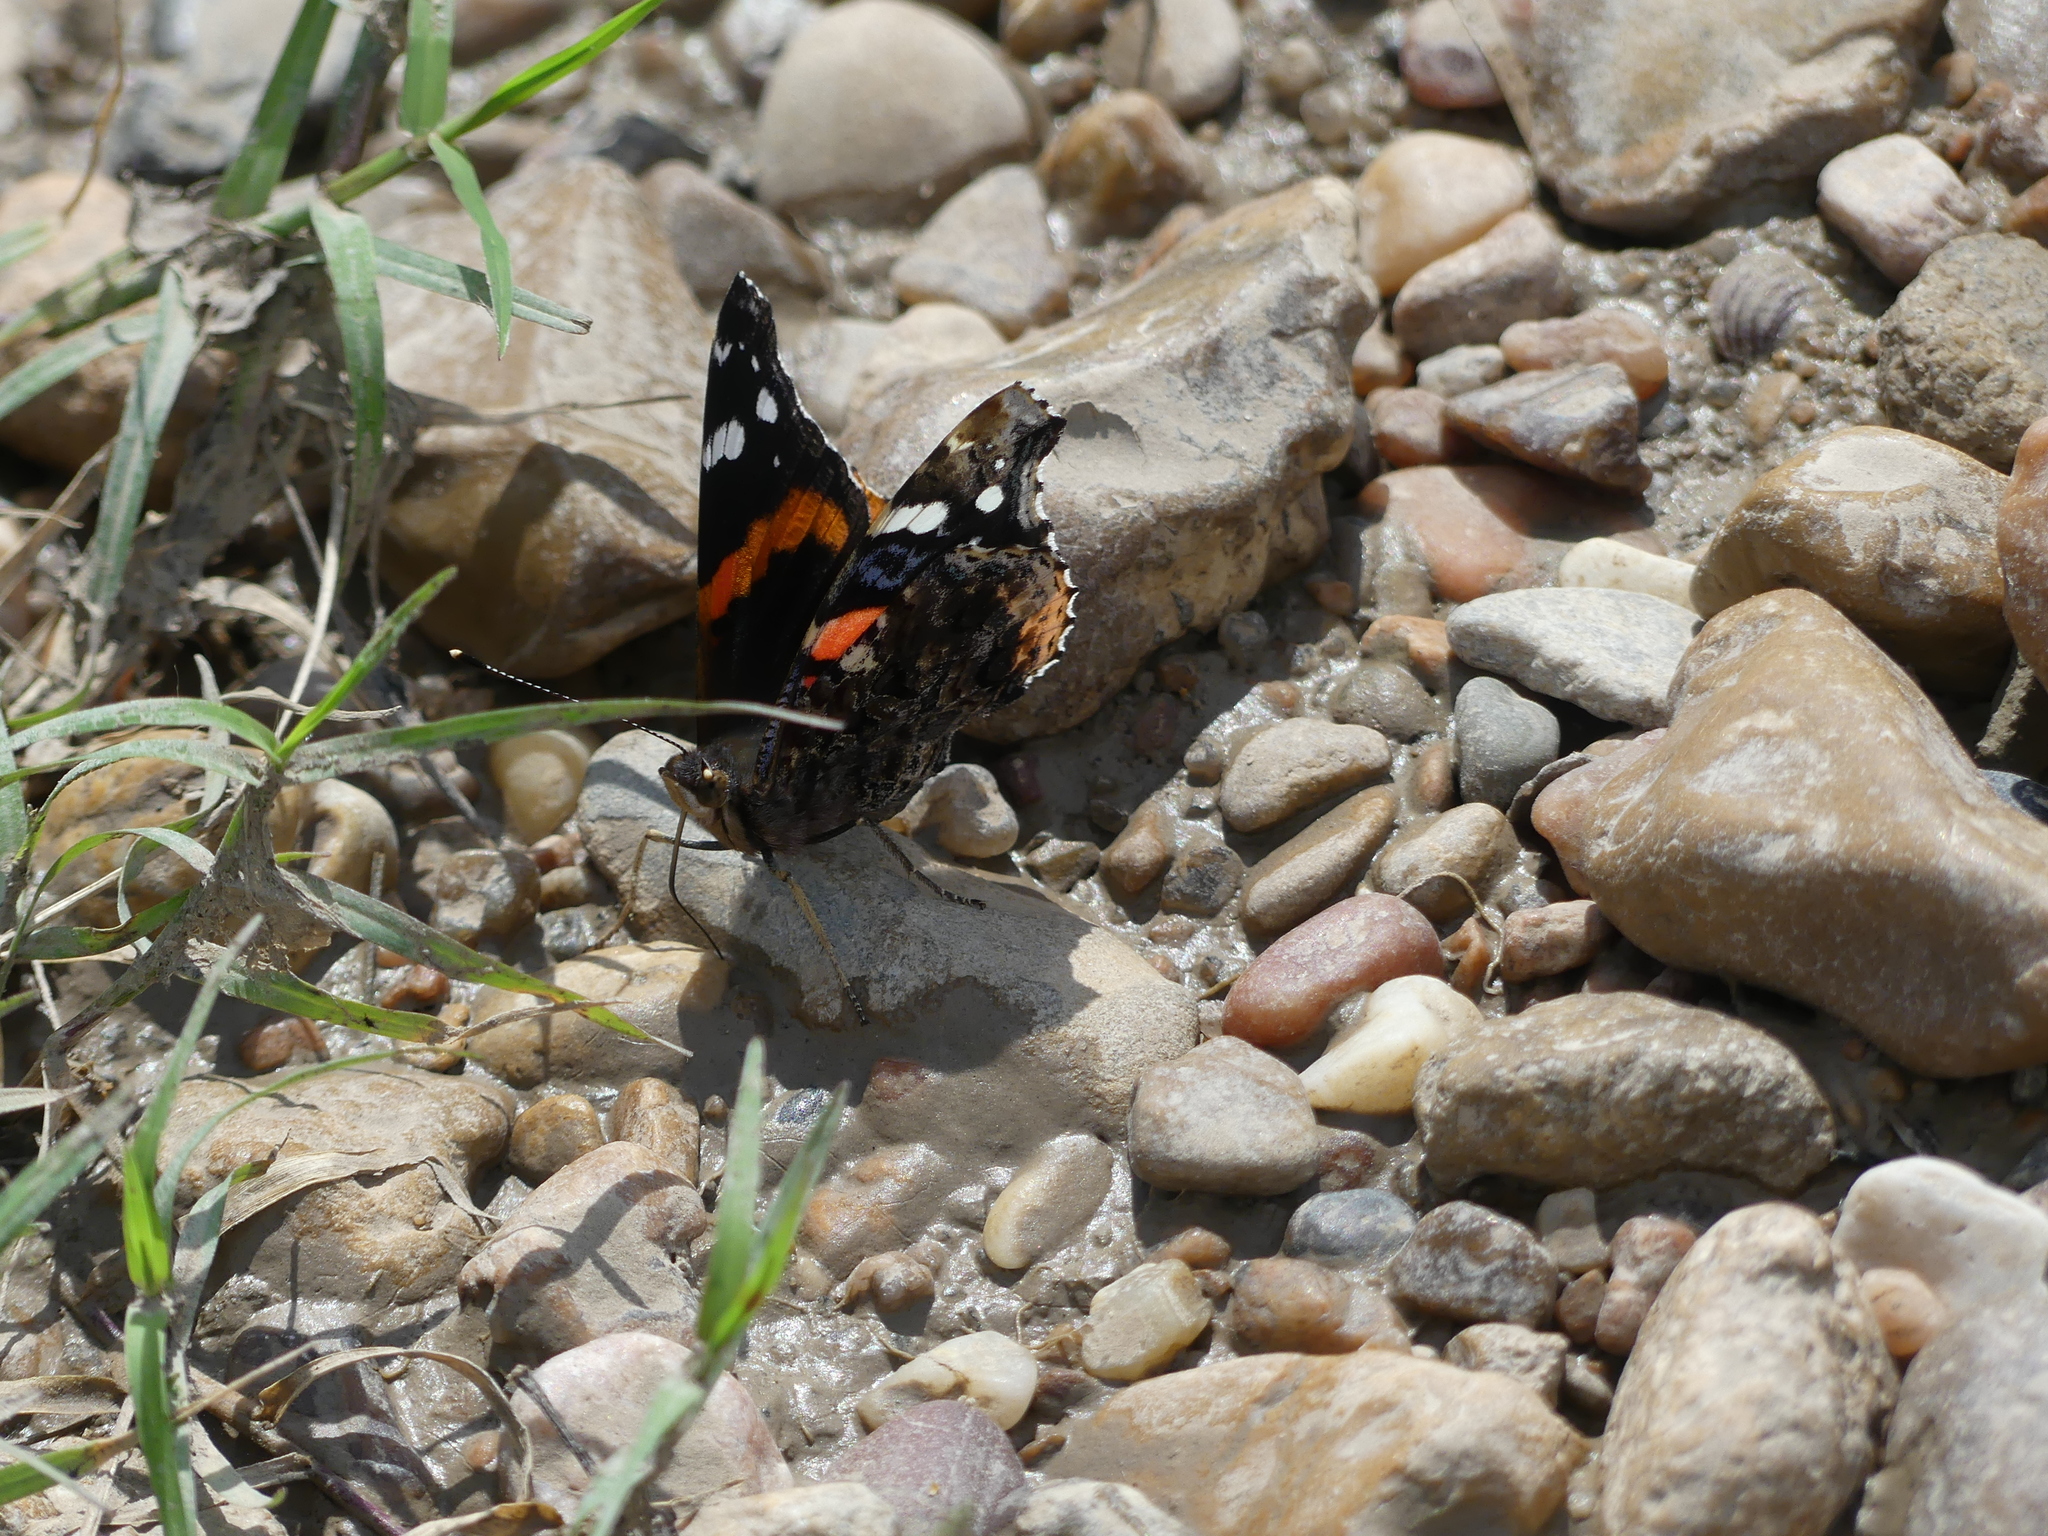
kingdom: Animalia
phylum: Arthropoda
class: Insecta
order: Lepidoptera
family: Nymphalidae
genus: Vanessa
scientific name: Vanessa atalanta
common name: Red admiral
